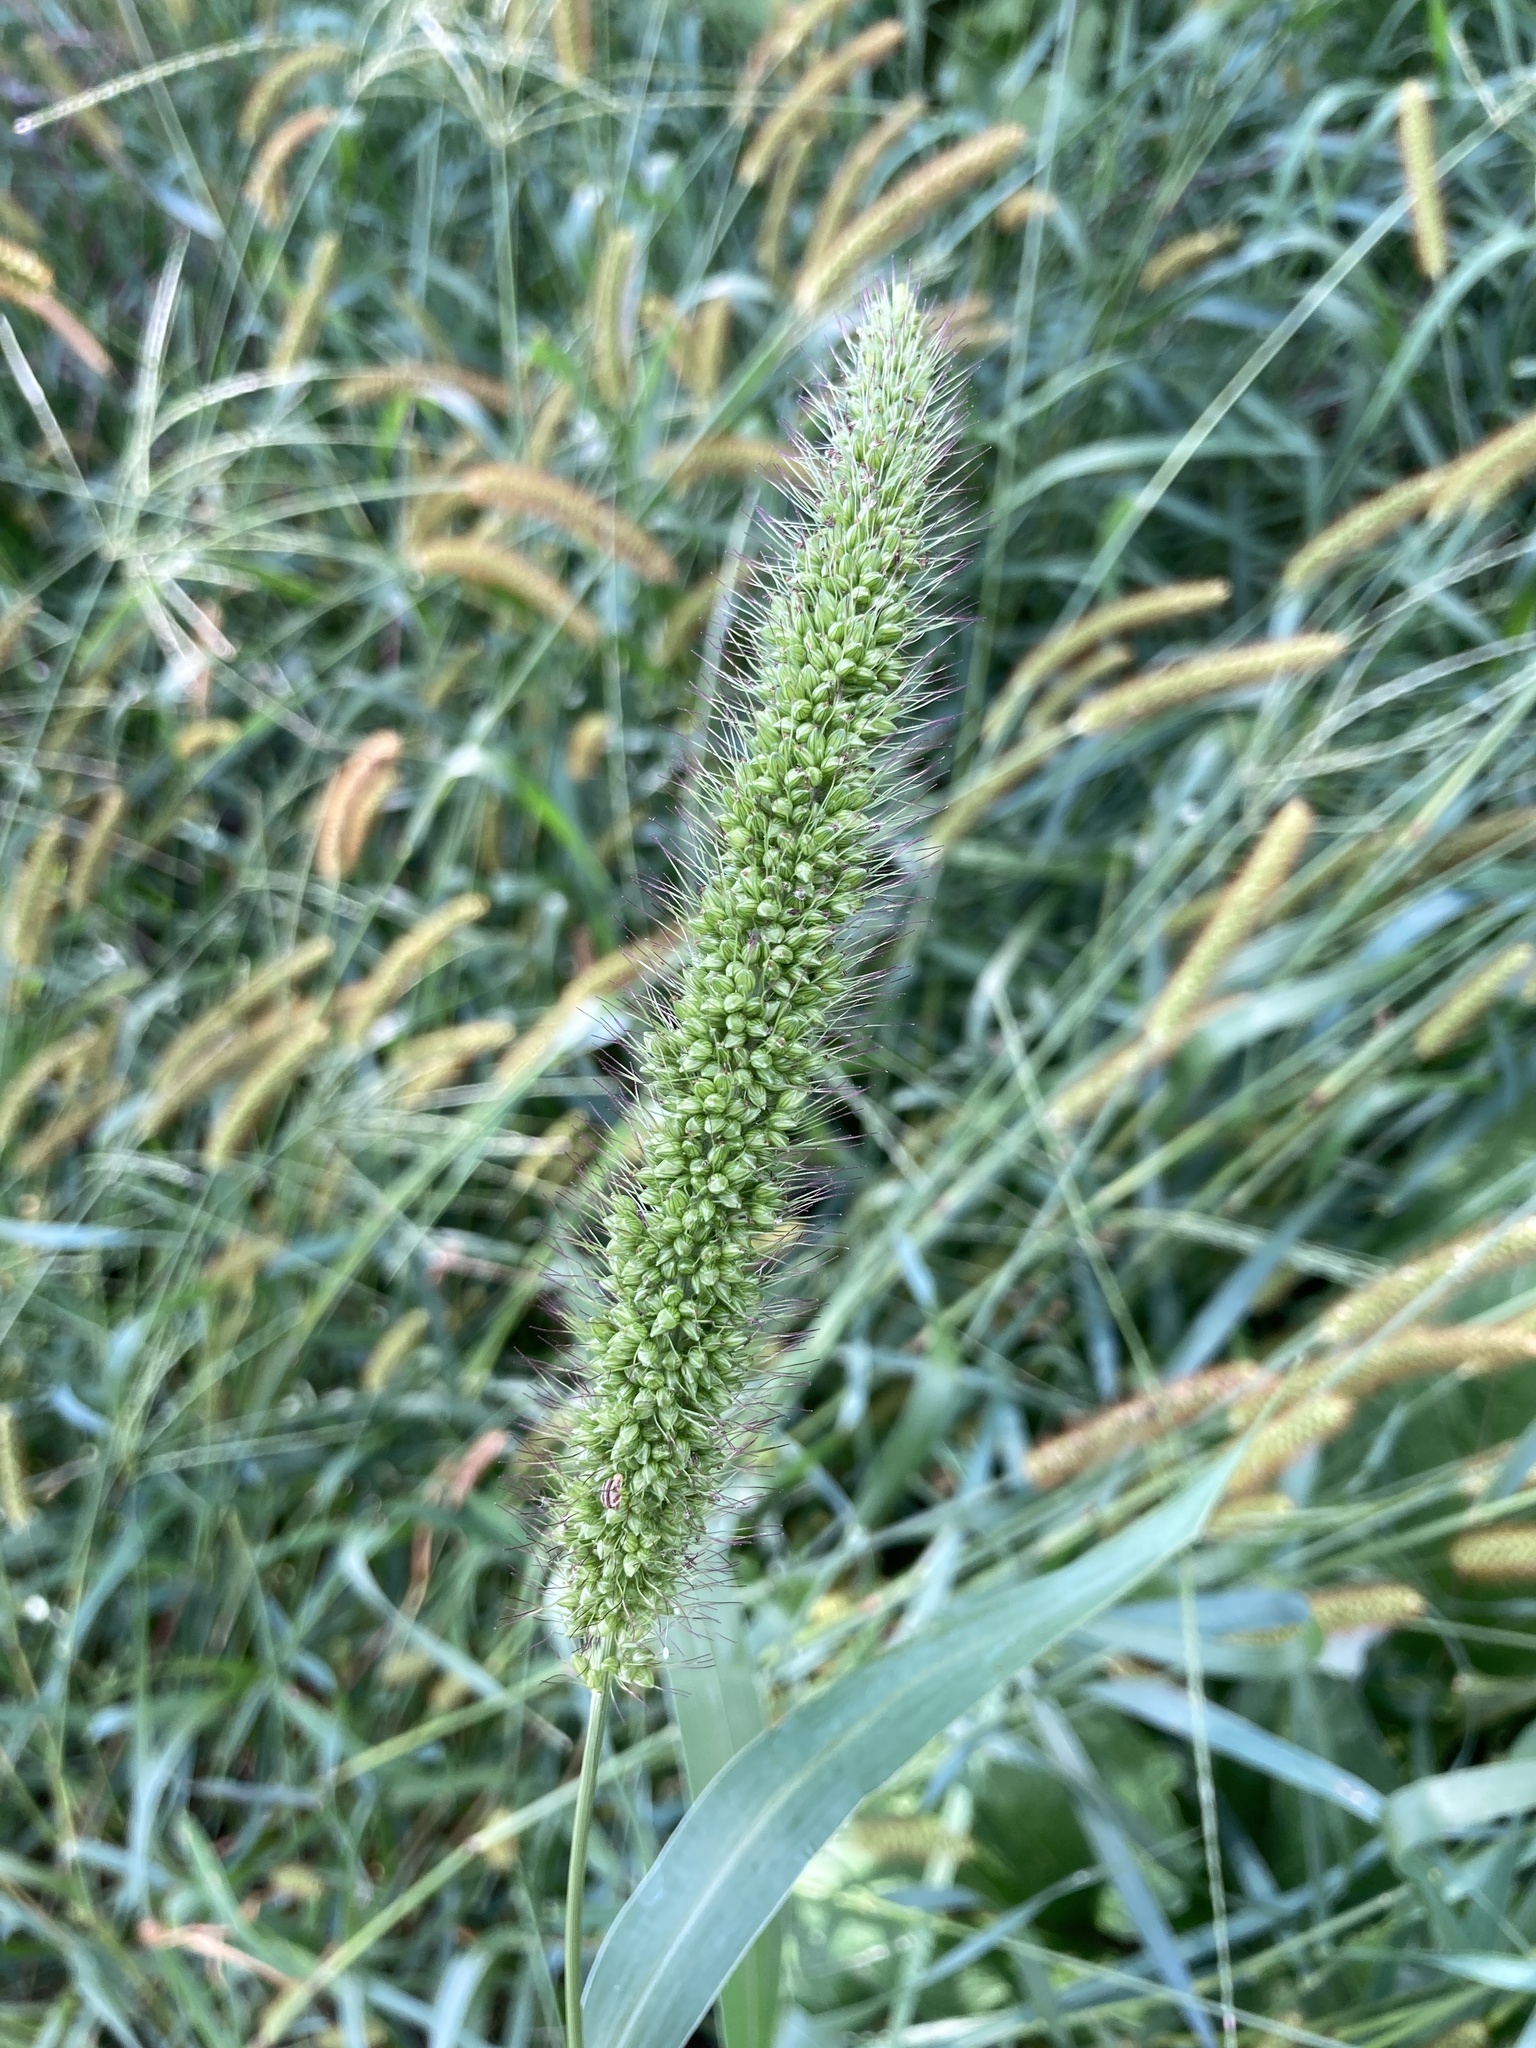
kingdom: Plantae
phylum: Tracheophyta
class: Liliopsida
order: Poales
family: Poaceae
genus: Setaria
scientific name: Setaria faberi
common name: Nodding bristle-grass
